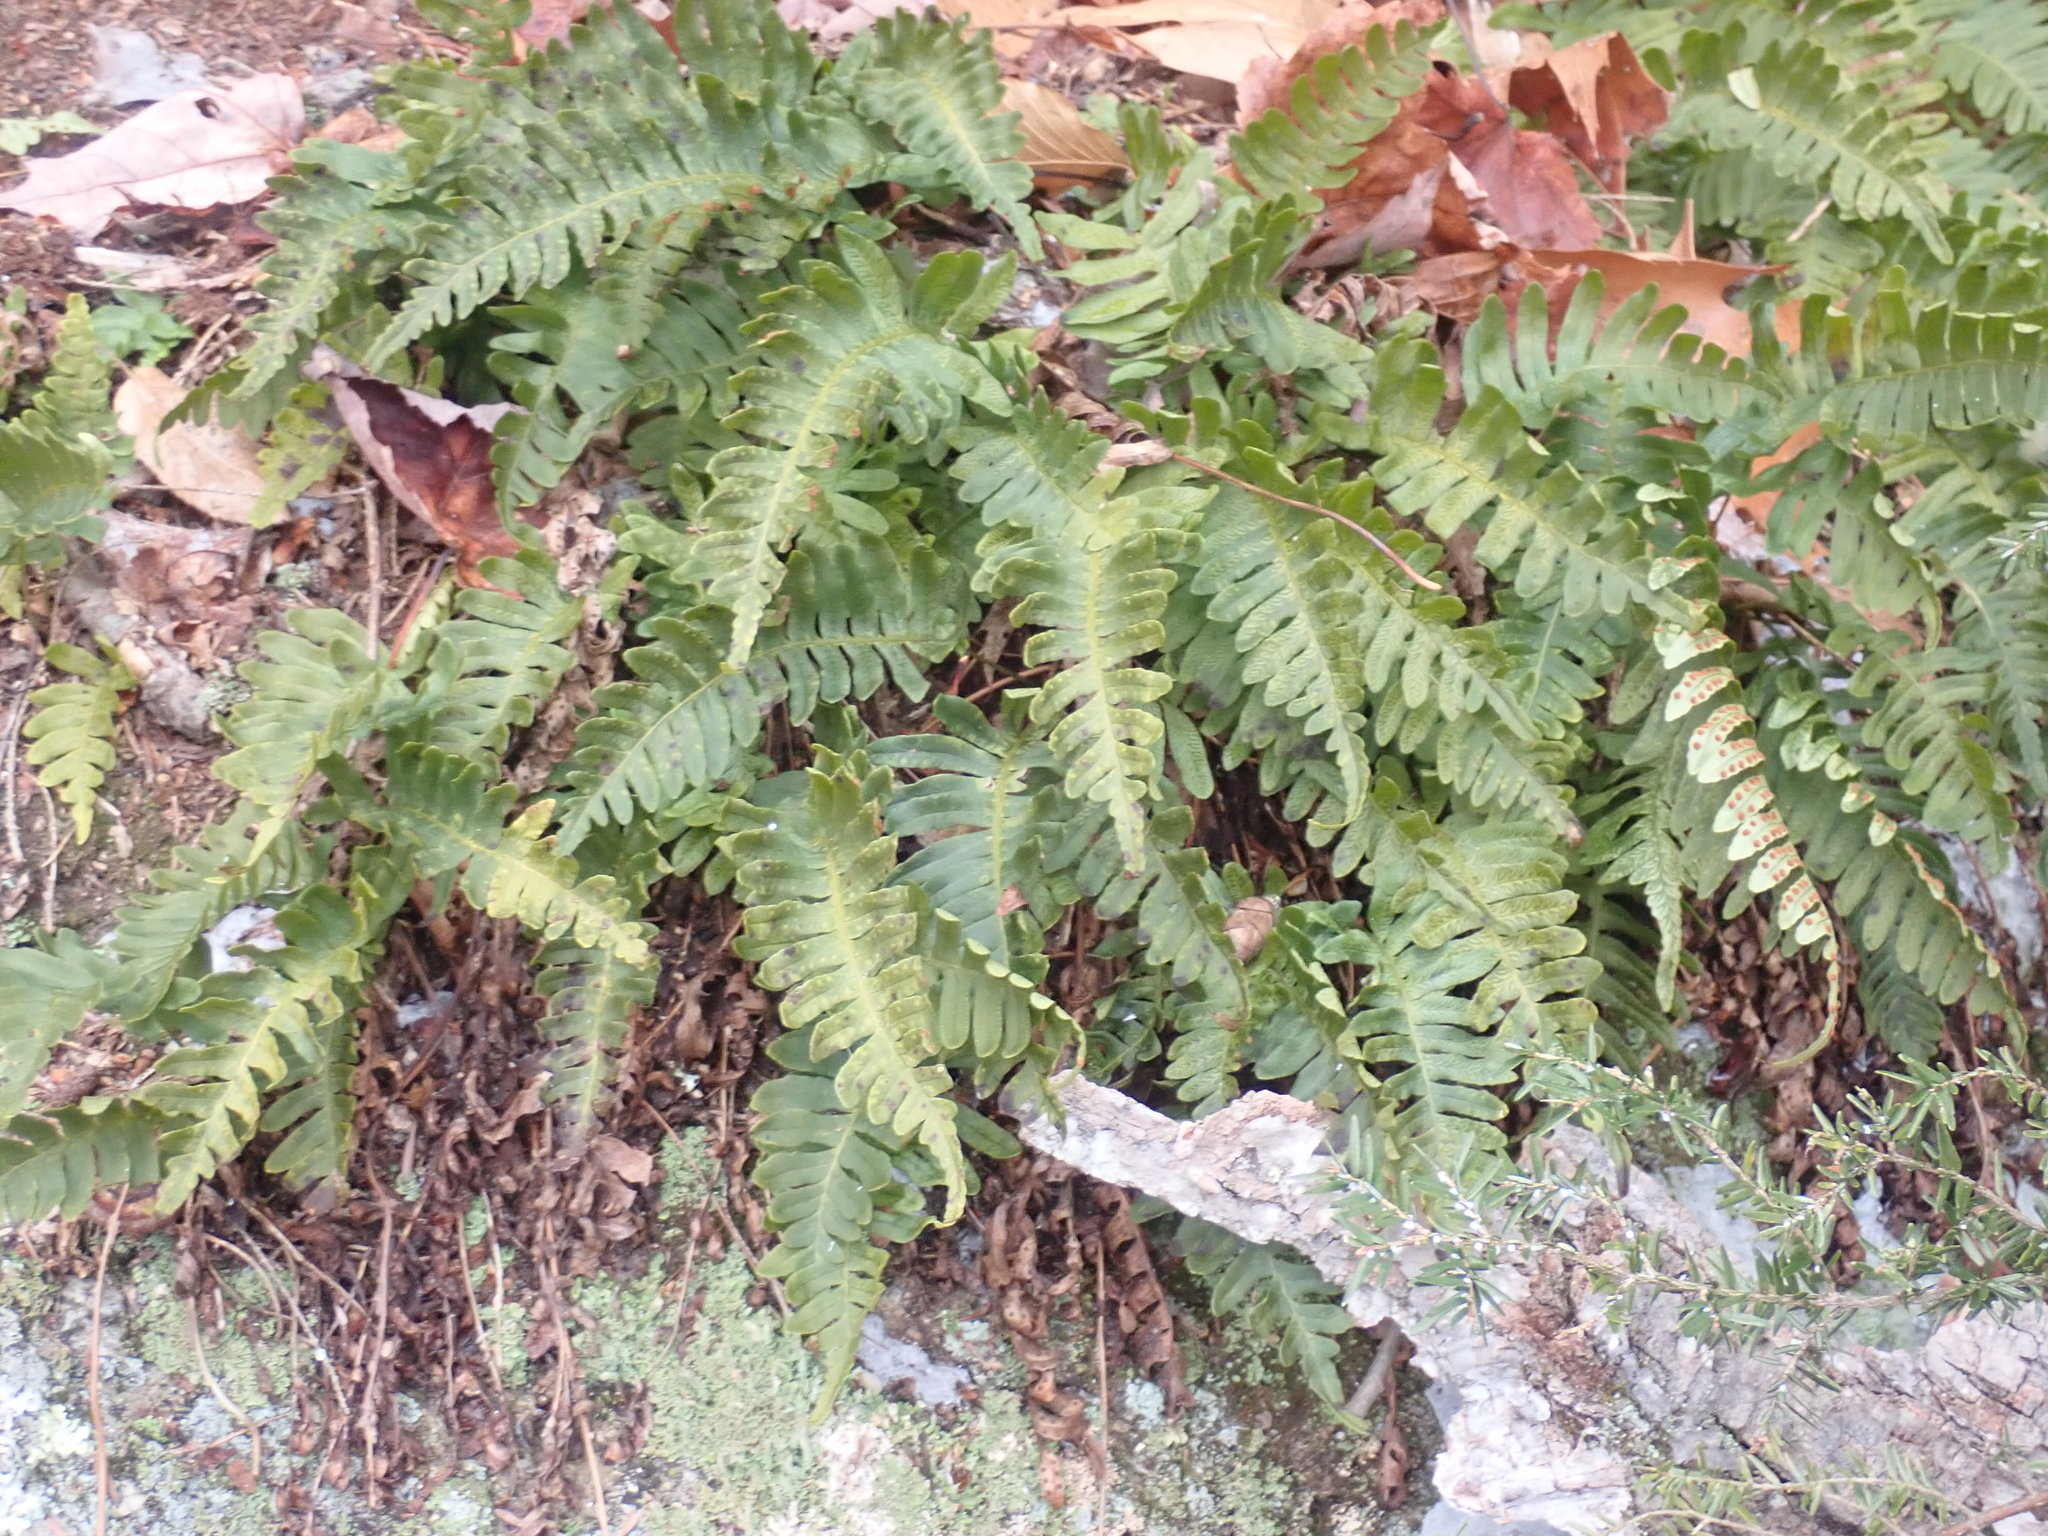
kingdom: Plantae
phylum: Tracheophyta
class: Polypodiopsida
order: Polypodiales
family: Polypodiaceae
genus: Polypodium
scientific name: Polypodium
